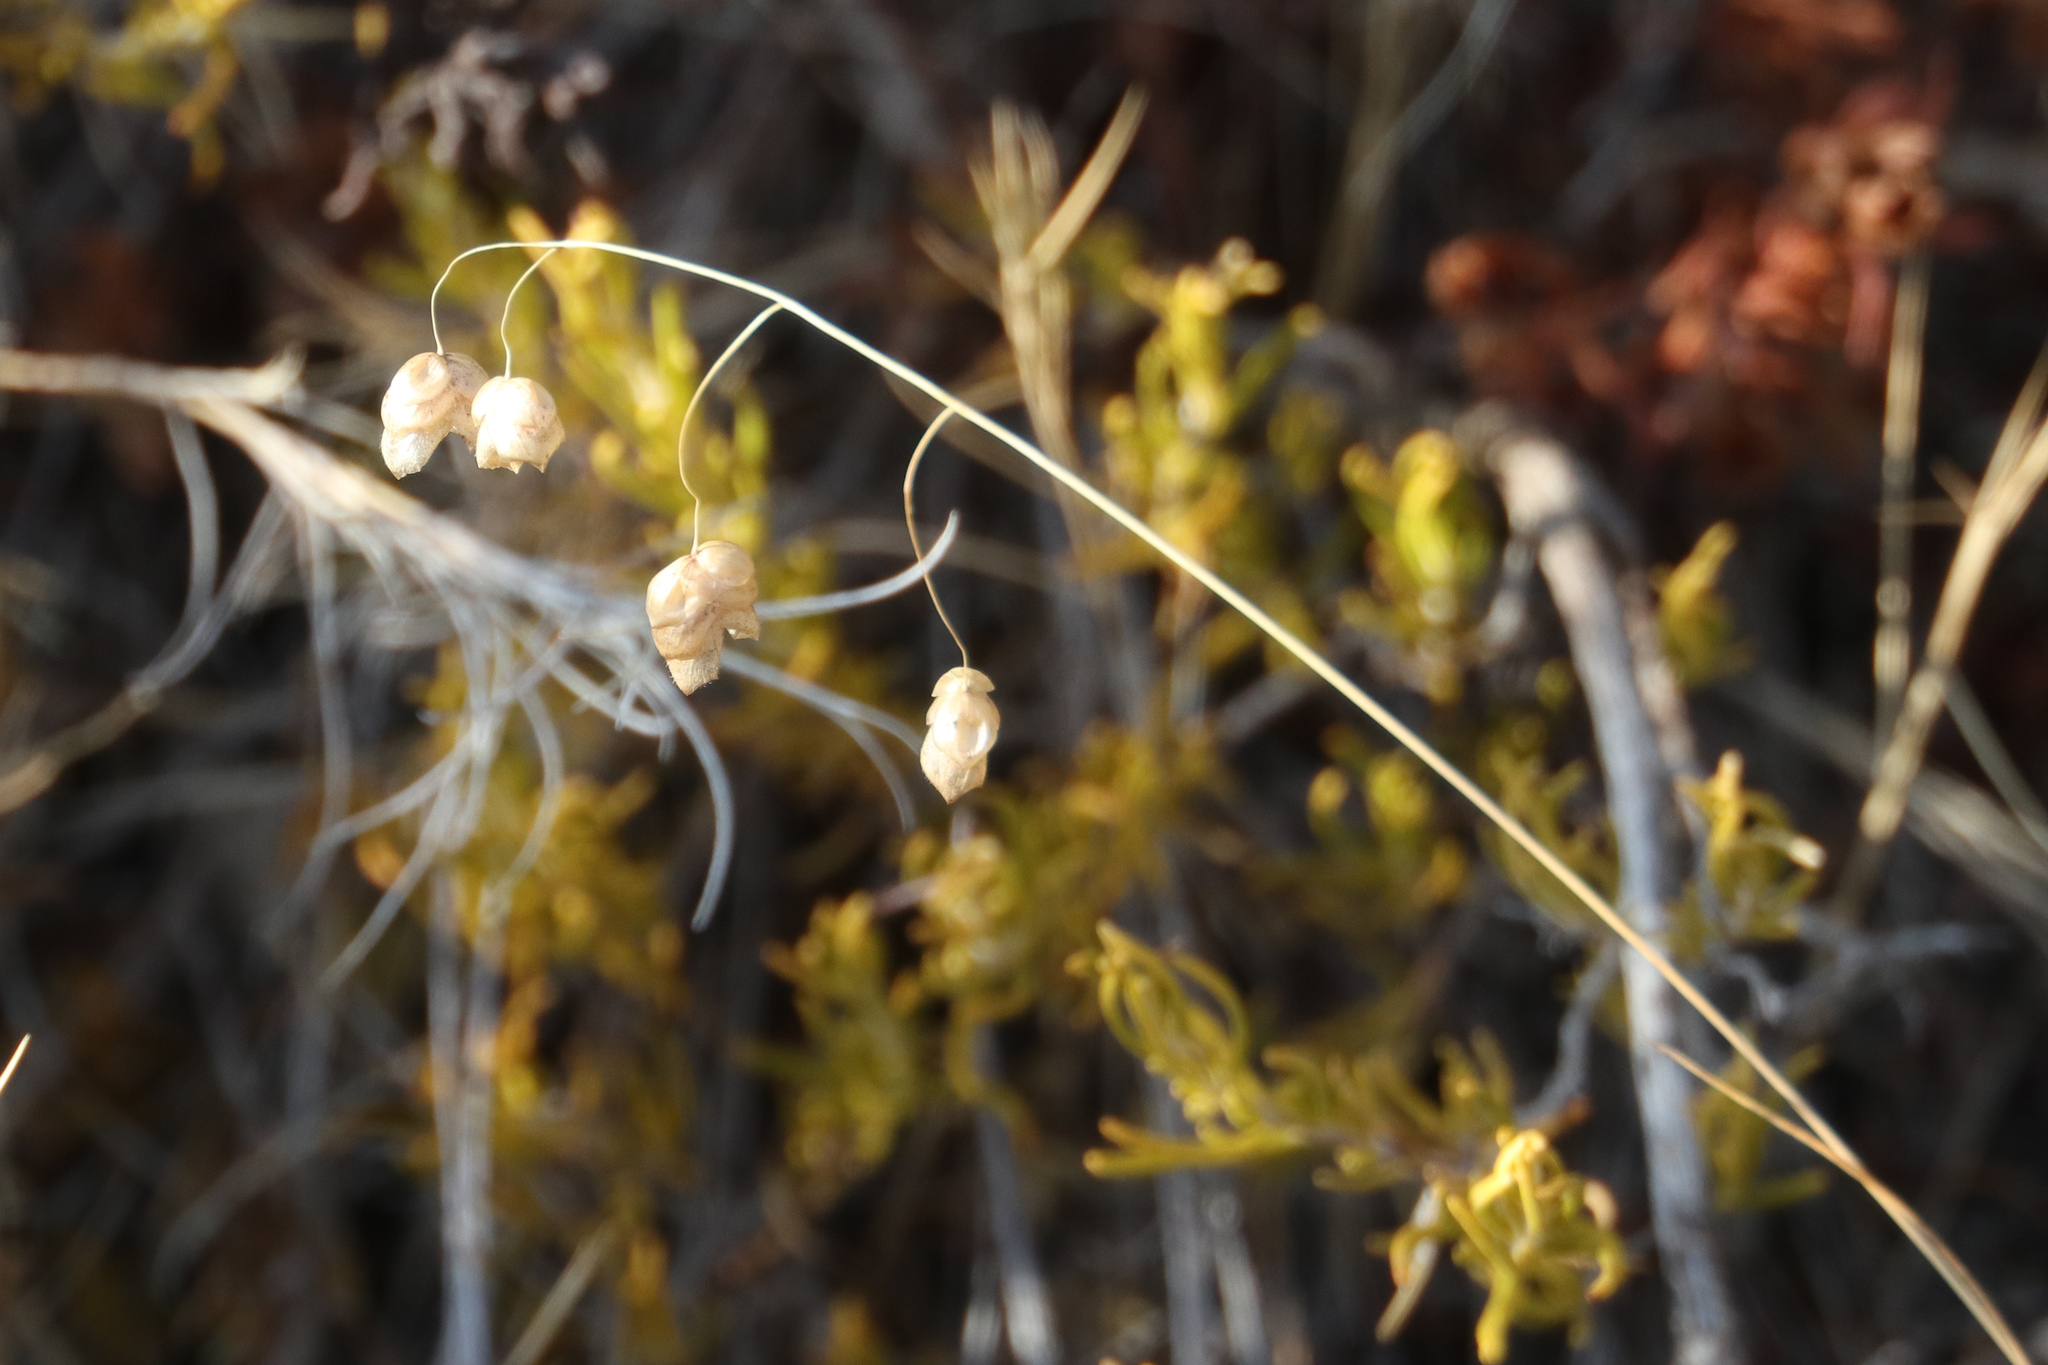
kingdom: Plantae
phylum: Tracheophyta
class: Liliopsida
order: Poales
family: Poaceae
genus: Briza
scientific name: Briza maxima
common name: Big quakinggrass
